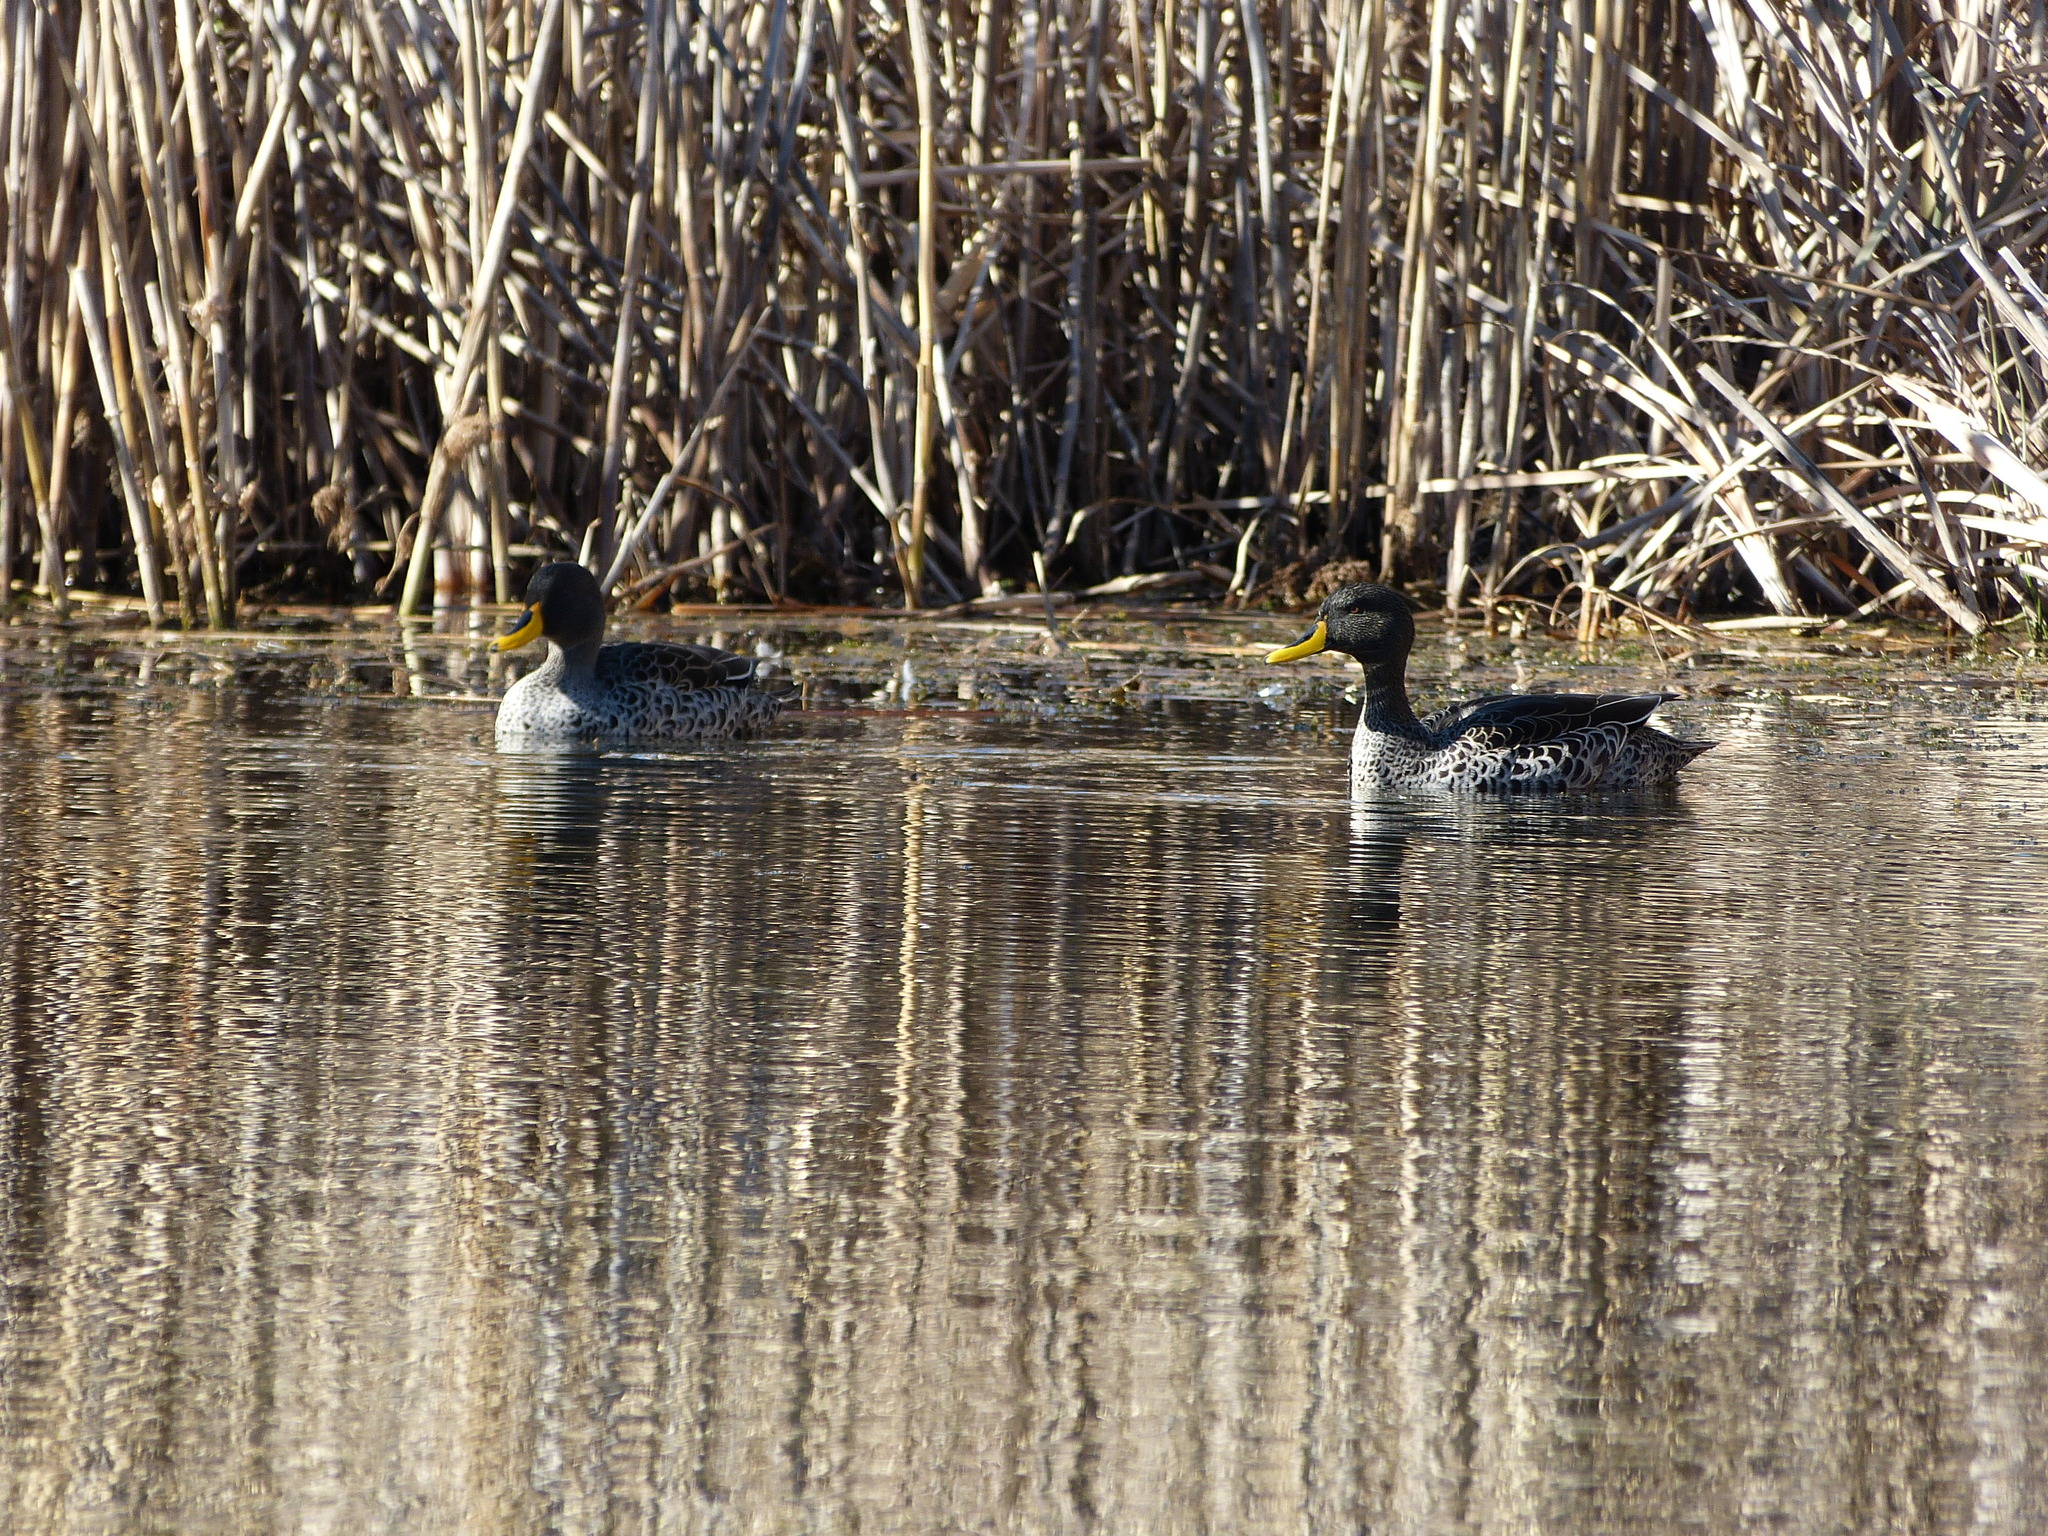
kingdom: Animalia
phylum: Chordata
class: Aves
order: Anseriformes
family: Anatidae
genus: Anas
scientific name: Anas undulata
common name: Yellow-billed duck
